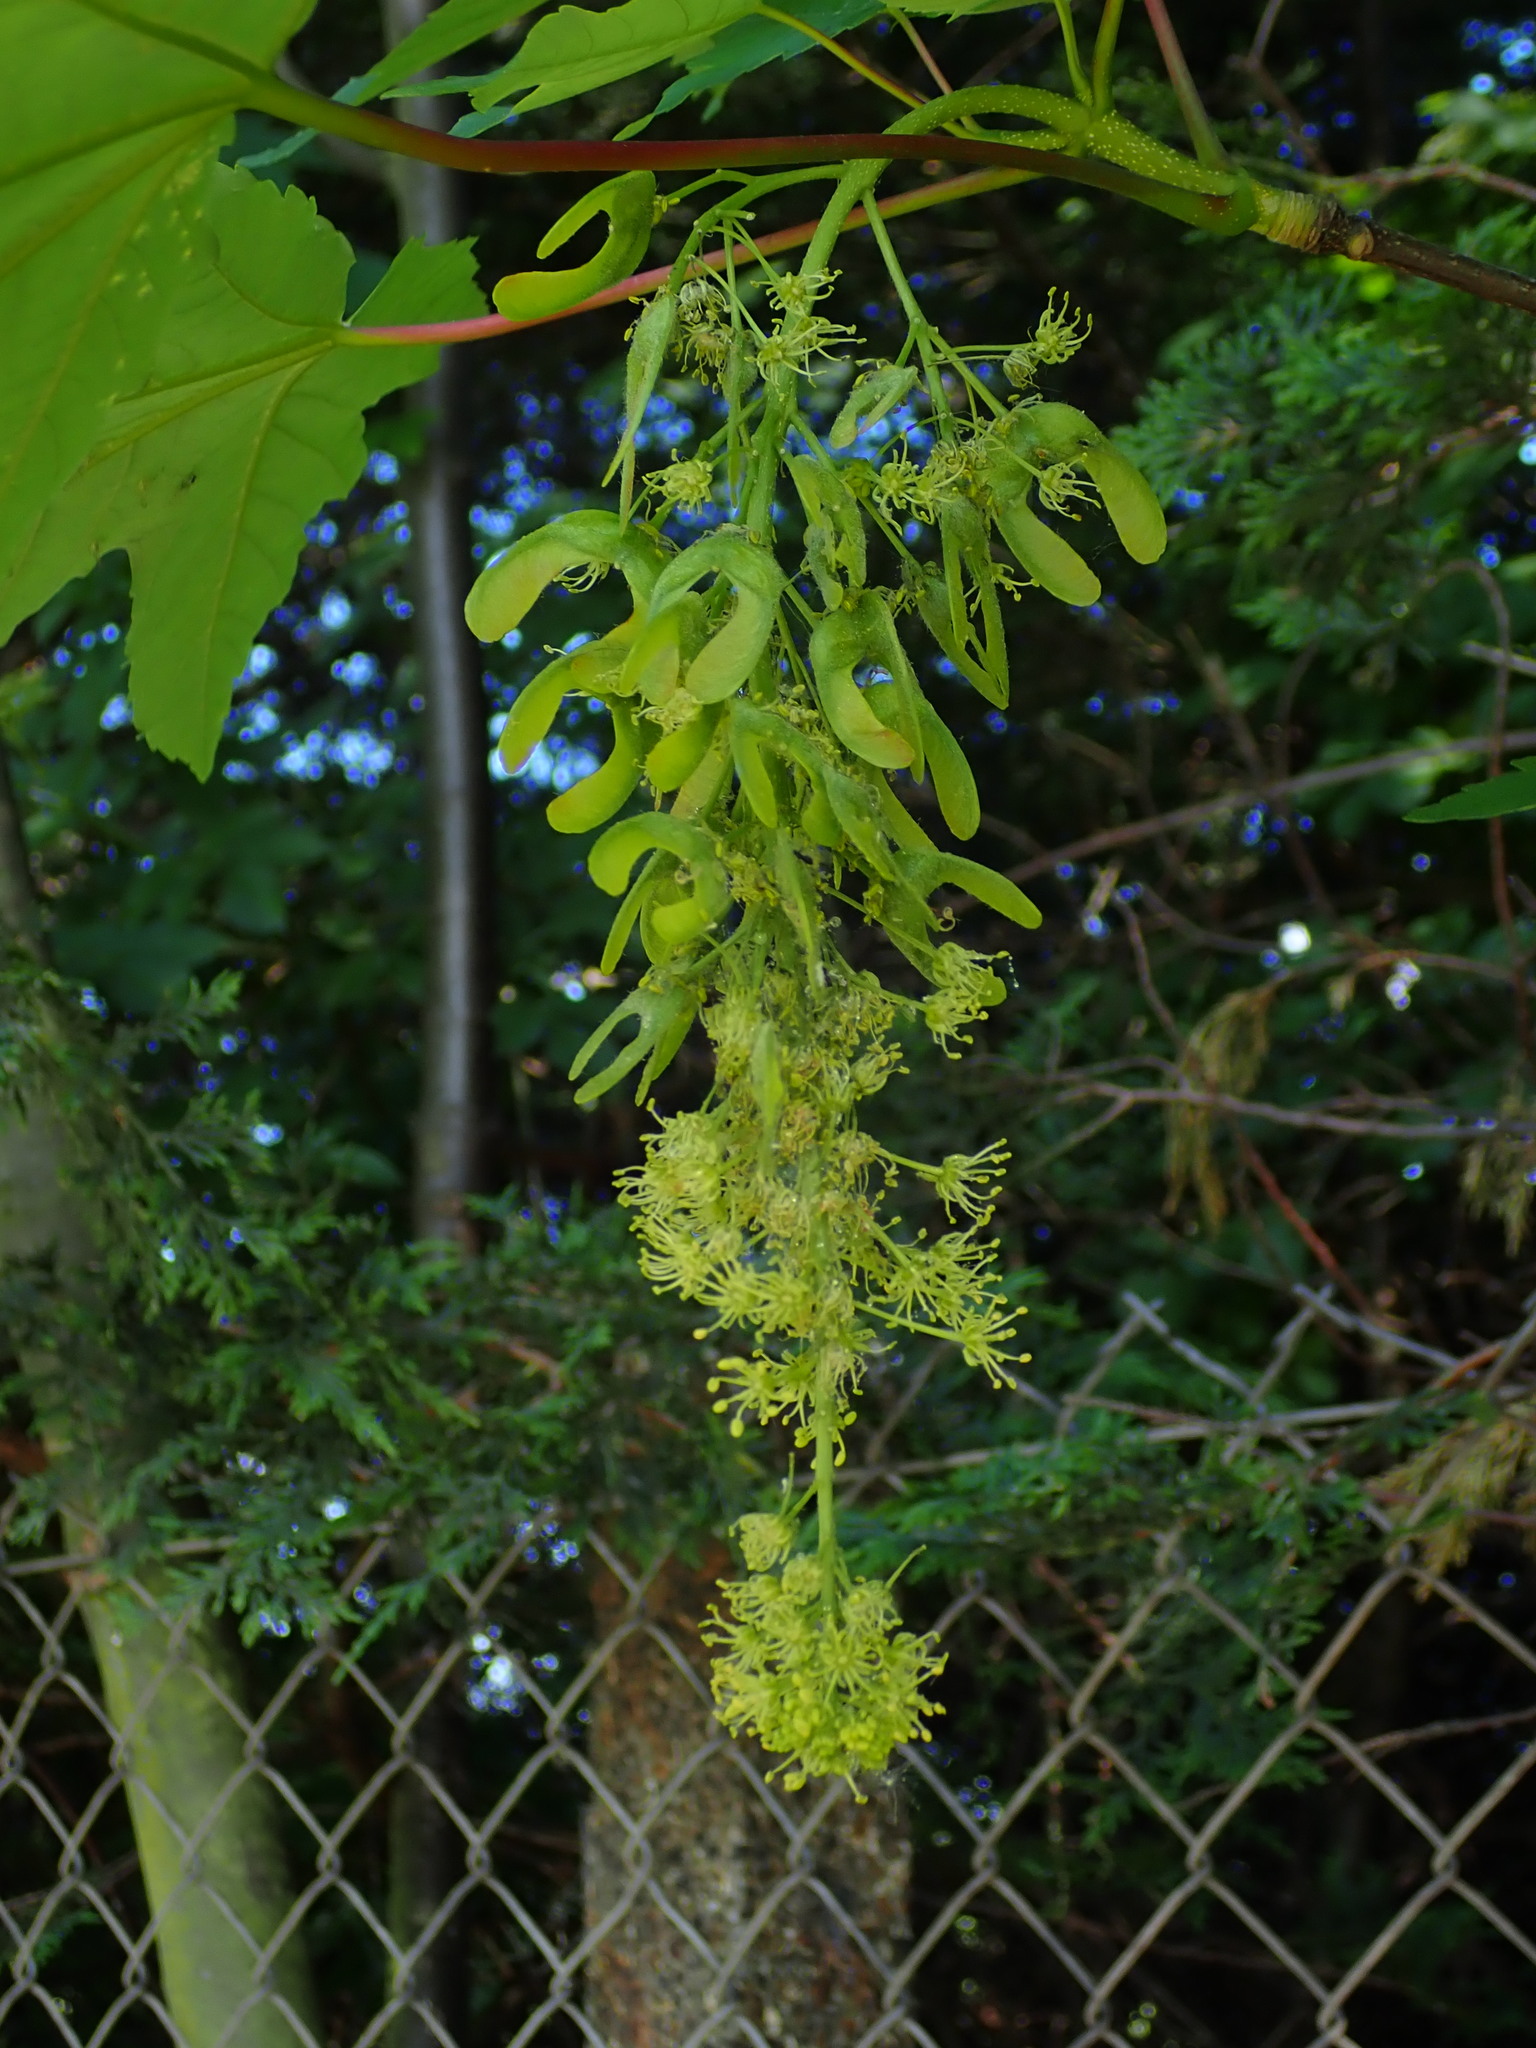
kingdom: Plantae
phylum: Tracheophyta
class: Magnoliopsida
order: Sapindales
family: Sapindaceae
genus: Acer
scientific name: Acer pseudoplatanus
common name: Sycamore
